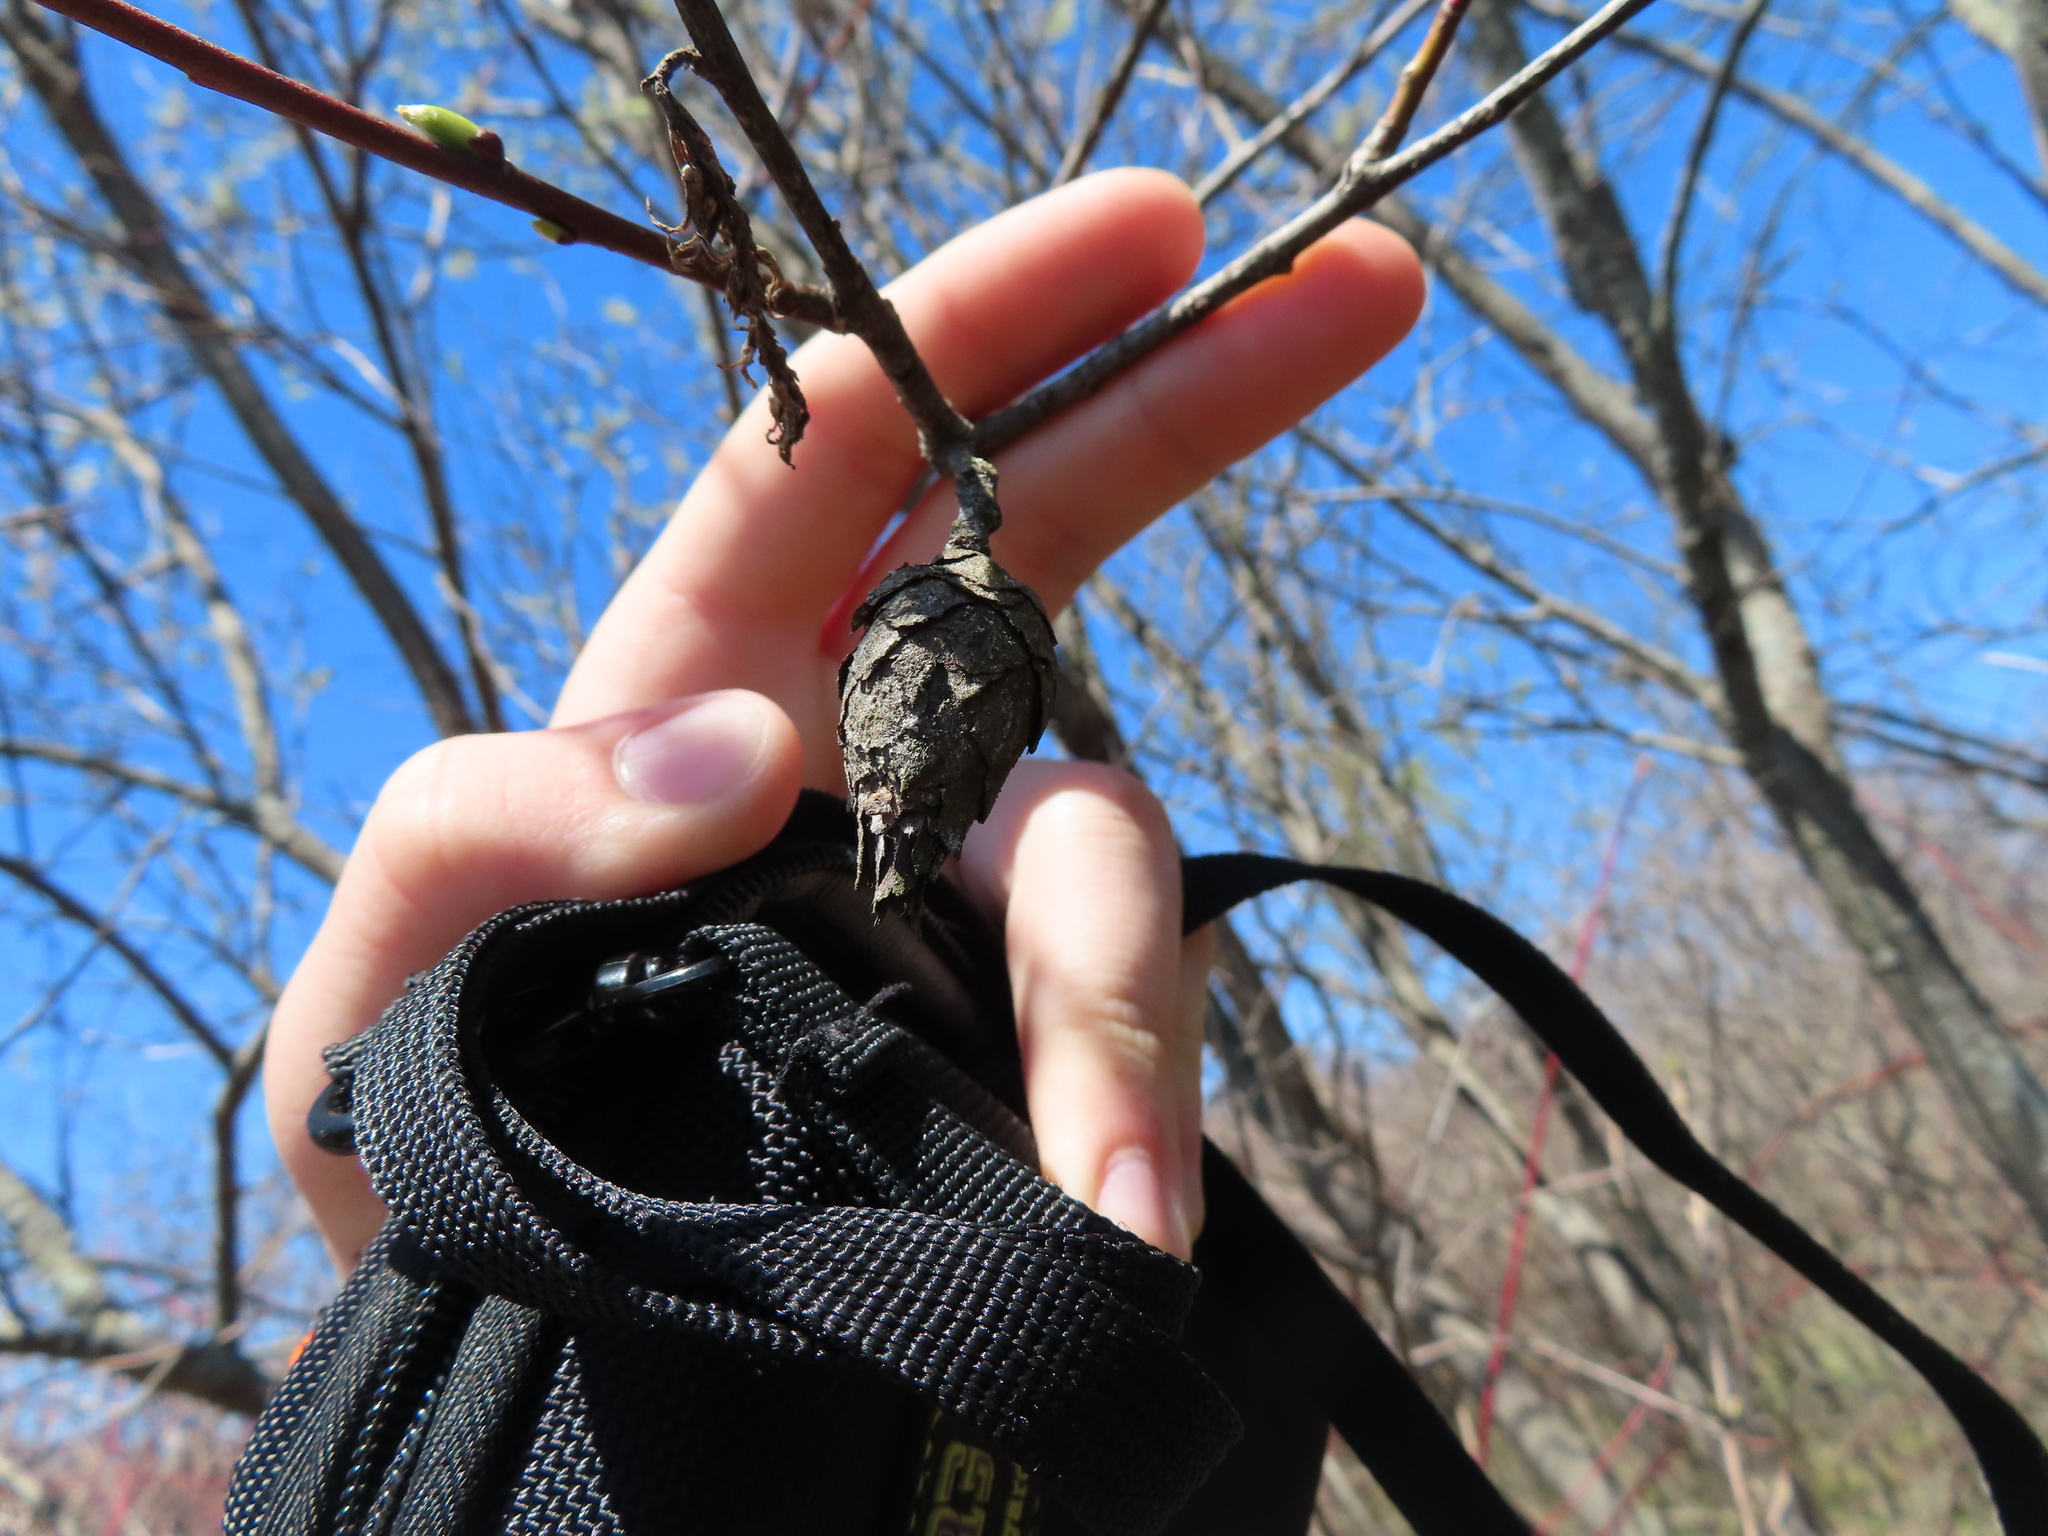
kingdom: Animalia
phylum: Arthropoda
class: Insecta
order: Diptera
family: Cecidomyiidae
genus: Rabdophaga
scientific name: Rabdophaga strobiloides
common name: Willow pinecone gall midge
